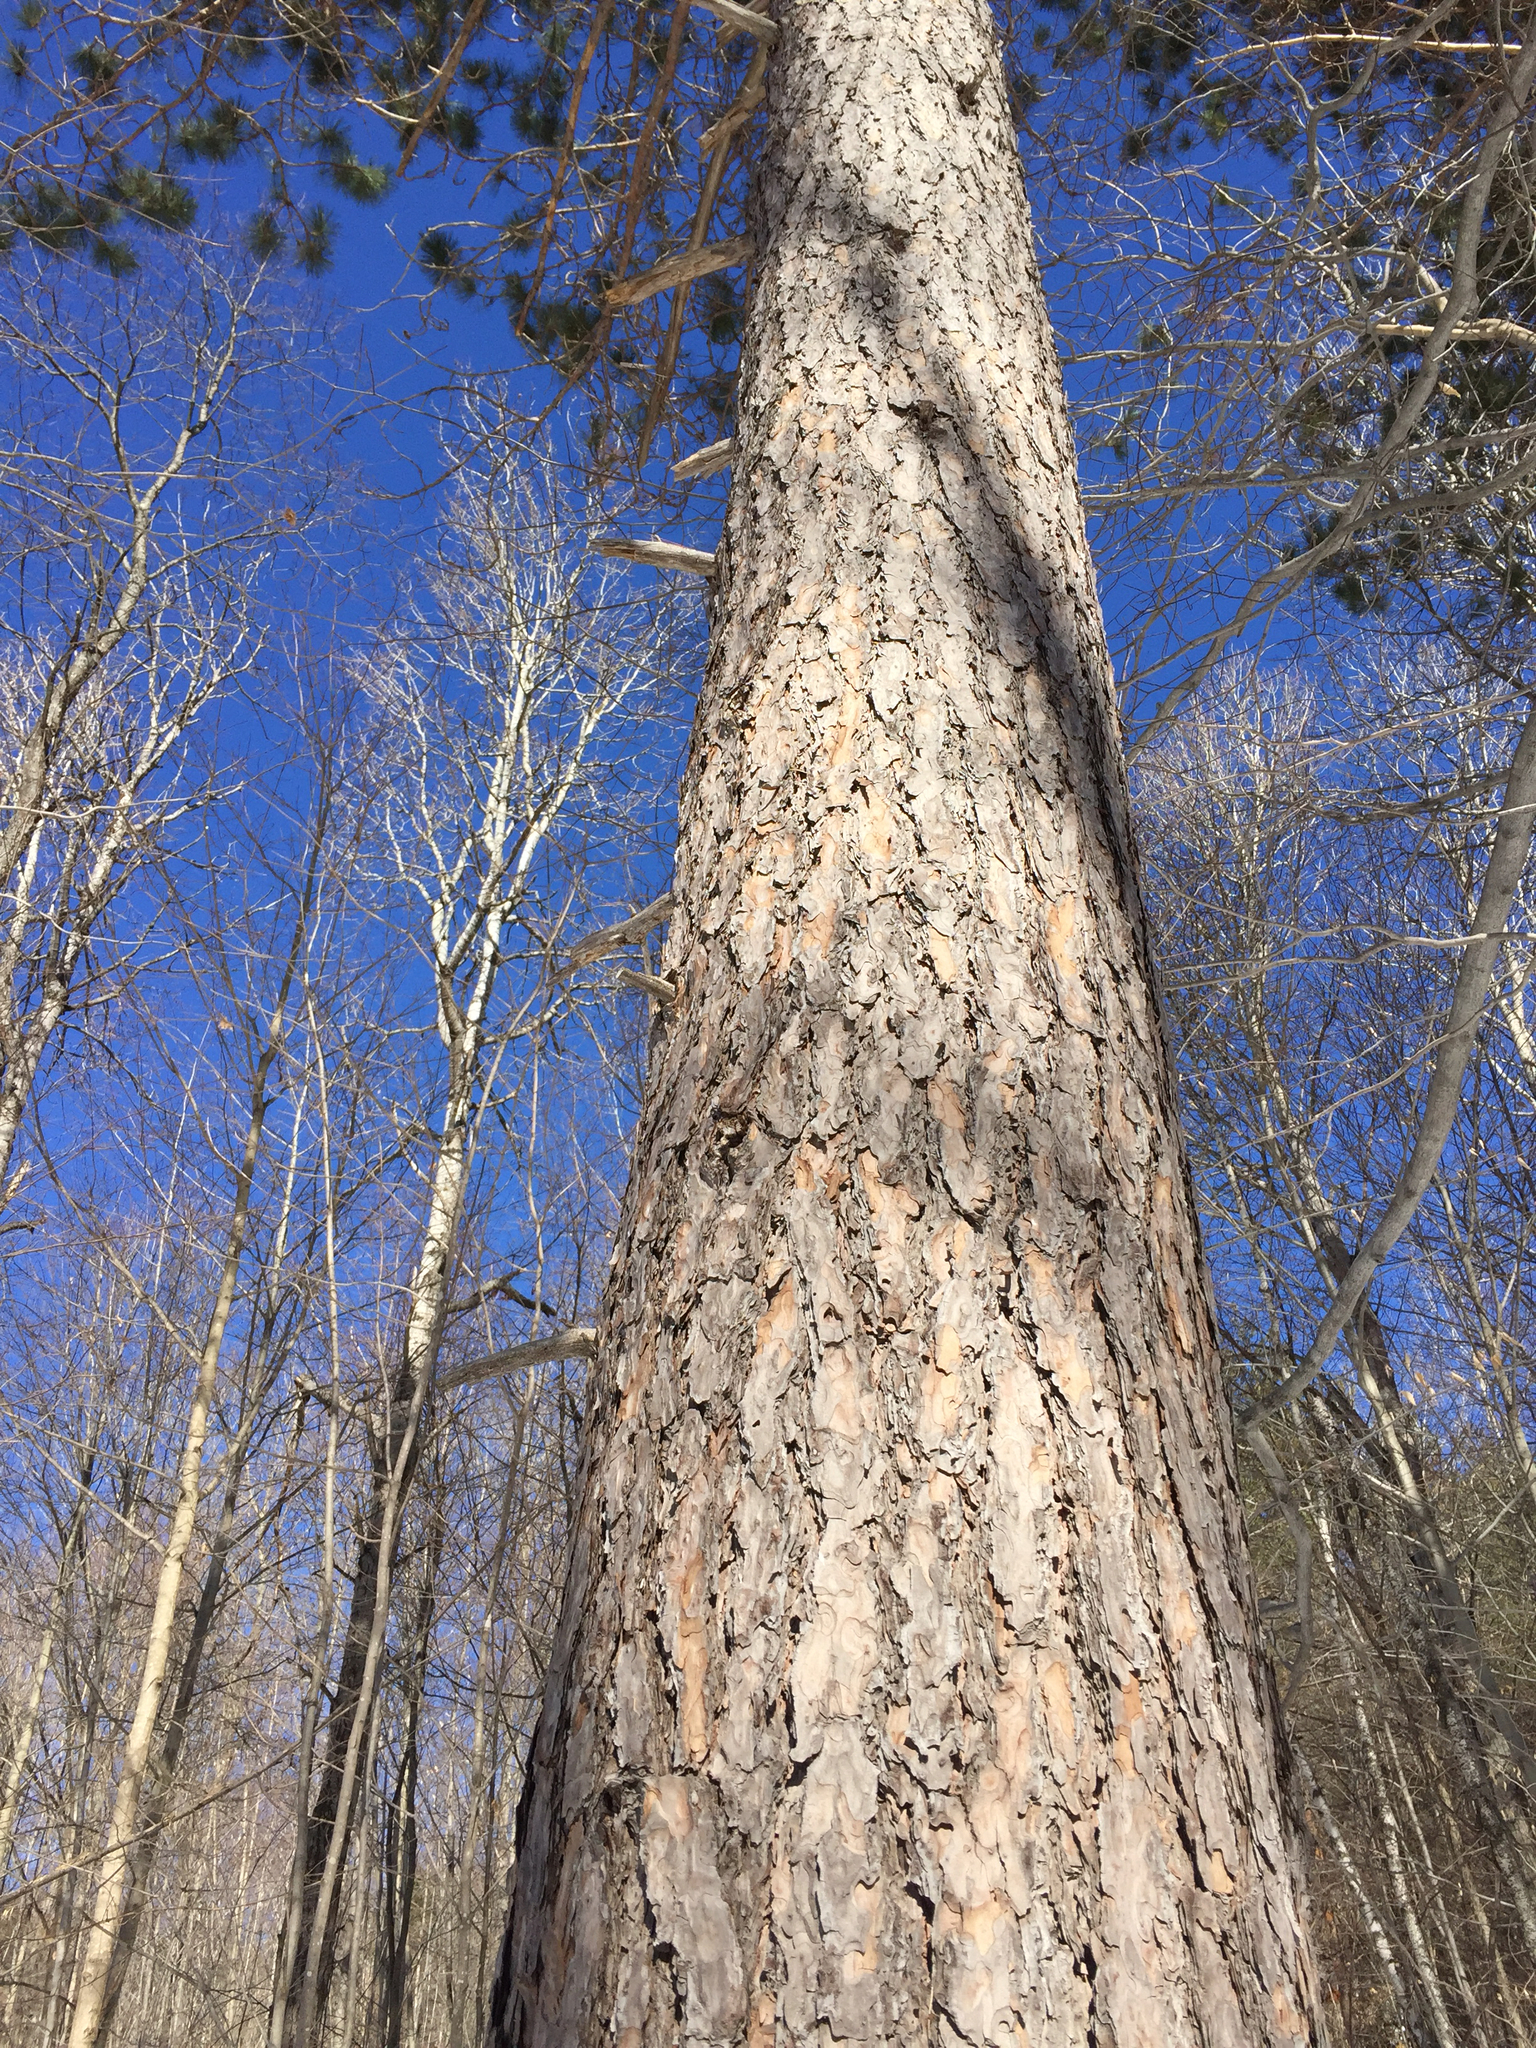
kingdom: Plantae
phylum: Tracheophyta
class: Pinopsida
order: Pinales
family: Pinaceae
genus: Pinus
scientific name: Pinus resinosa
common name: Norway pine
